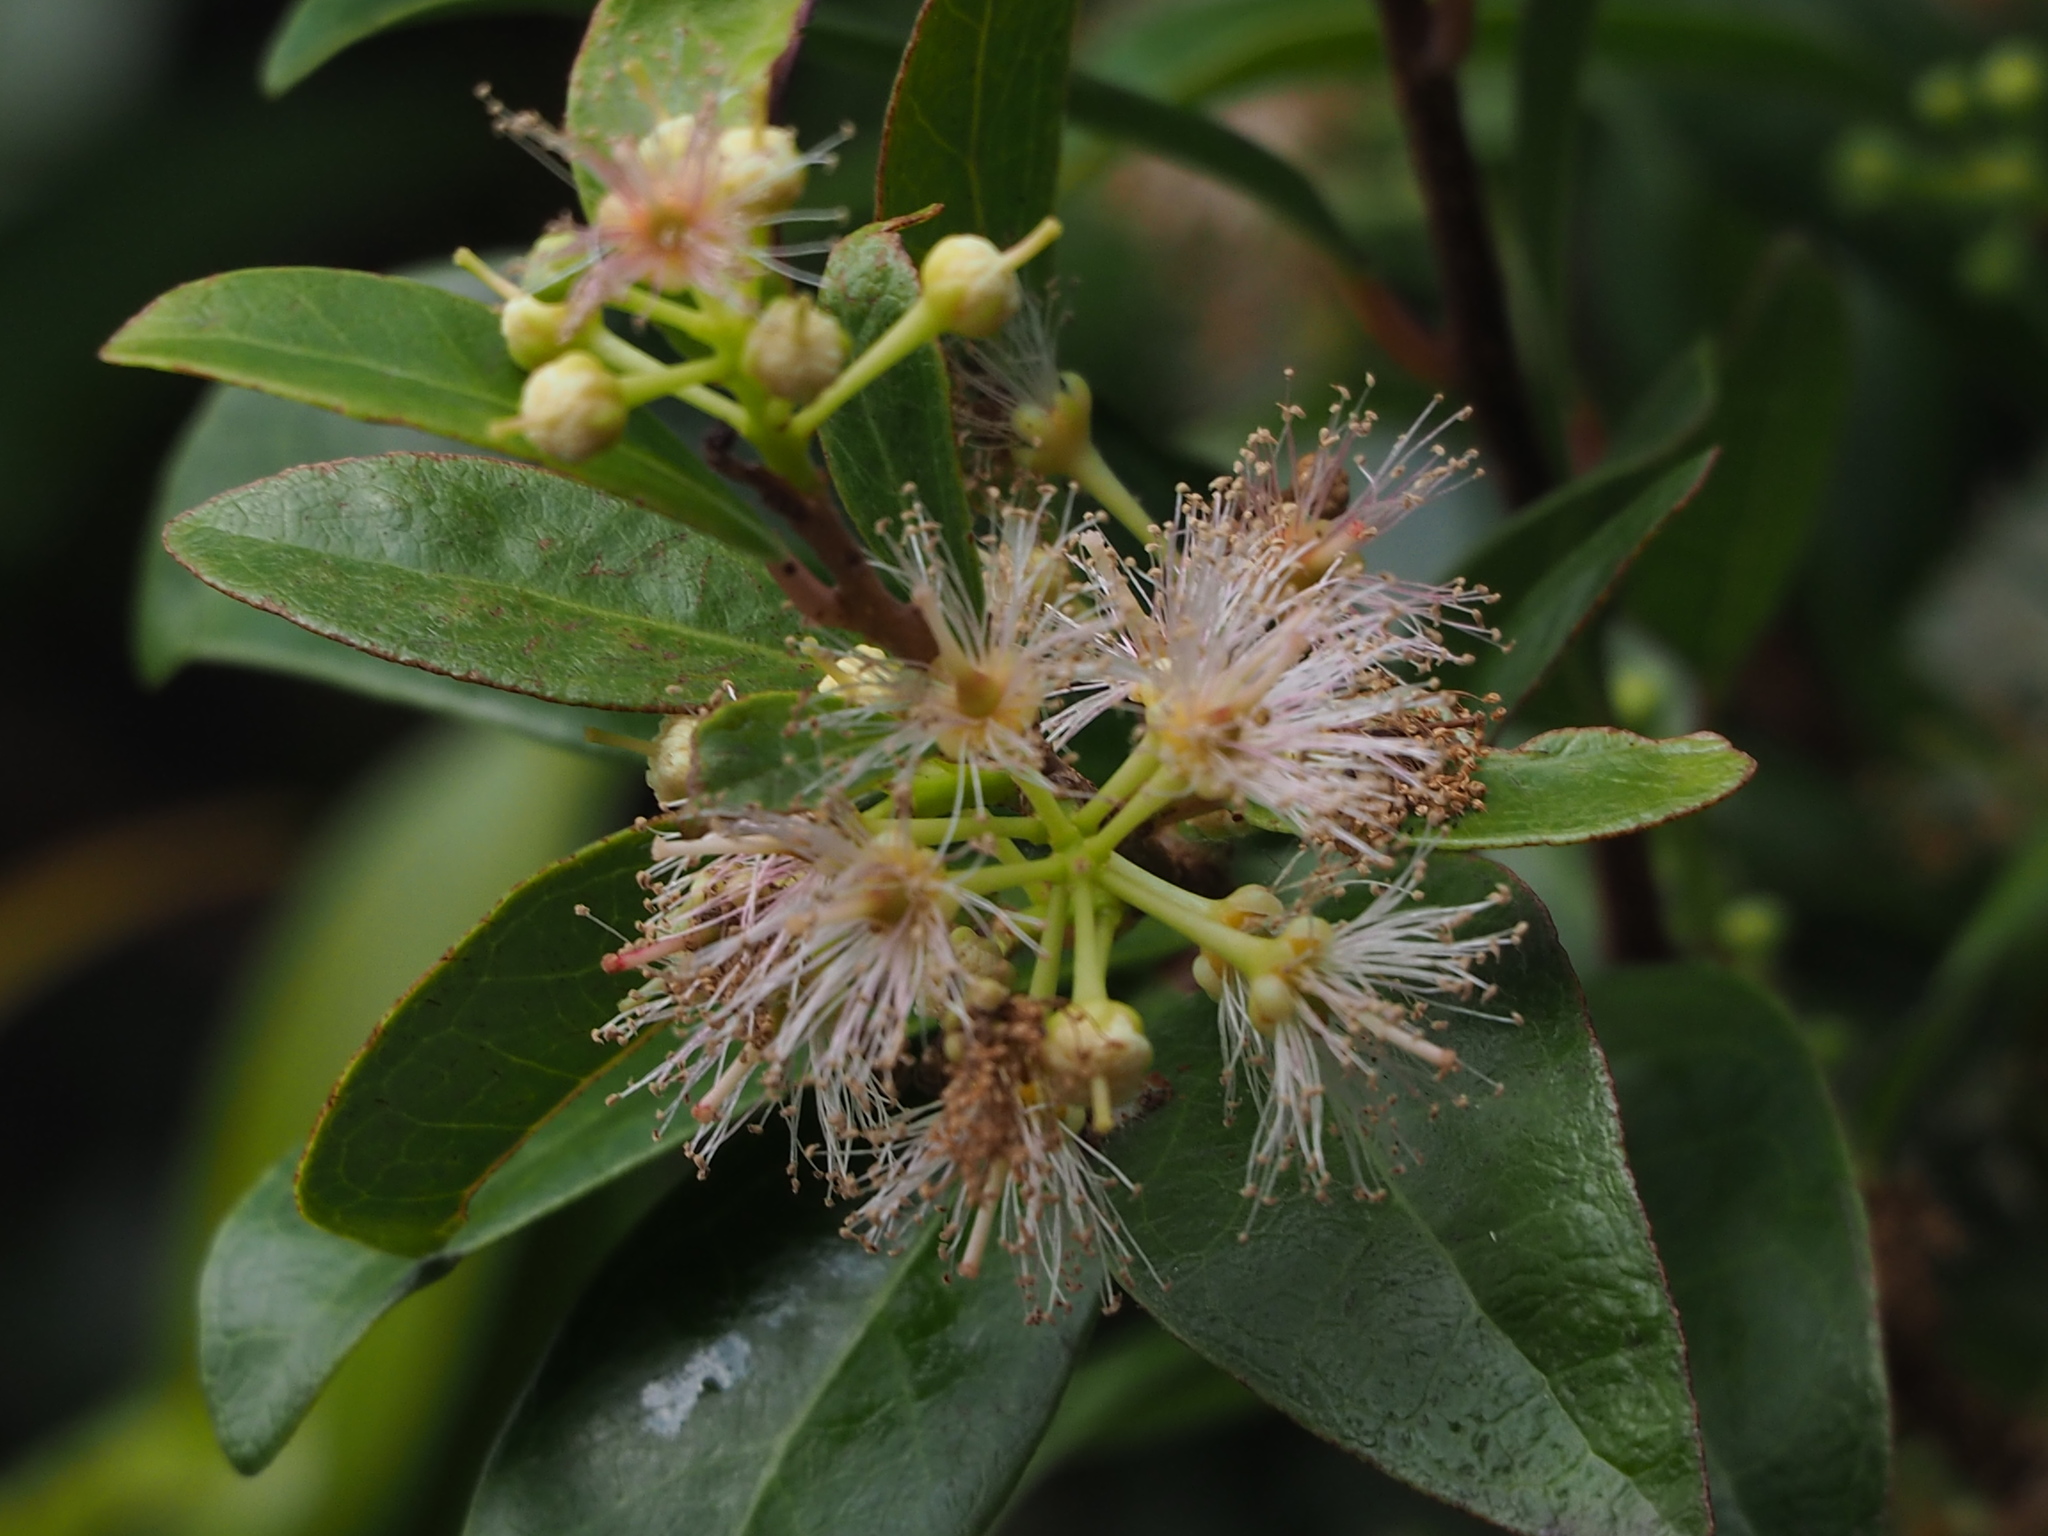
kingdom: Plantae
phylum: Tracheophyta
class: Magnoliopsida
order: Malpighiales
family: Salicaceae
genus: Scolopia
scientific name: Scolopia oldhamii
